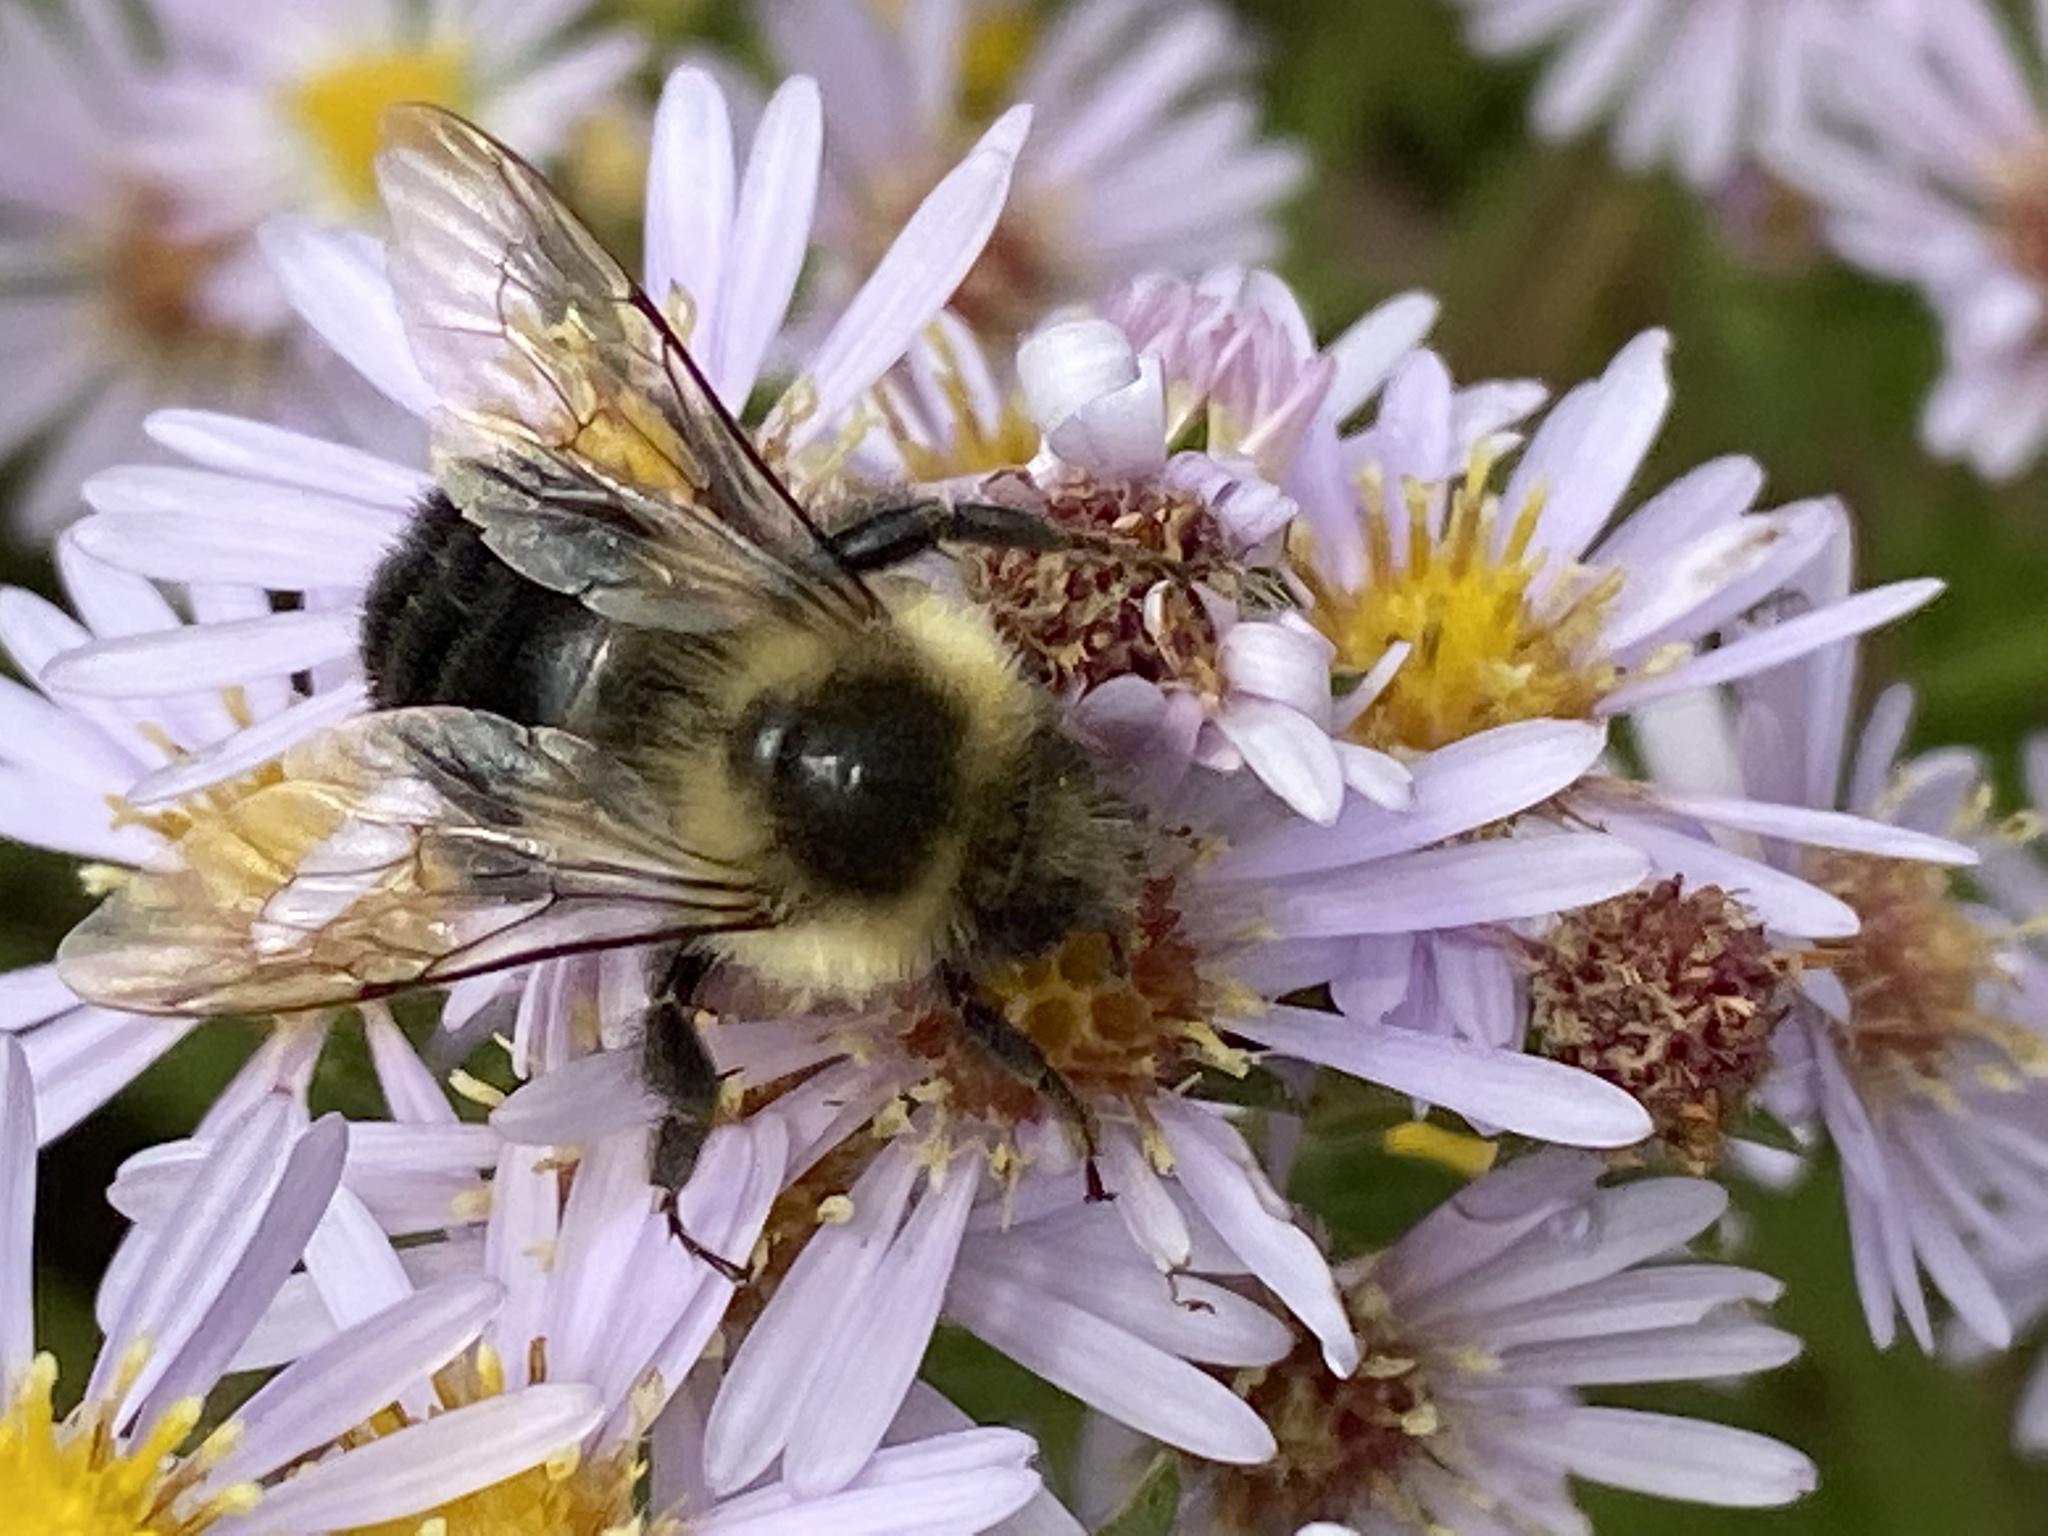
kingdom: Animalia
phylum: Arthropoda
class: Insecta
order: Hymenoptera
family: Apidae
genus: Bombus
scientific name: Bombus impatiens
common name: Common eastern bumble bee
